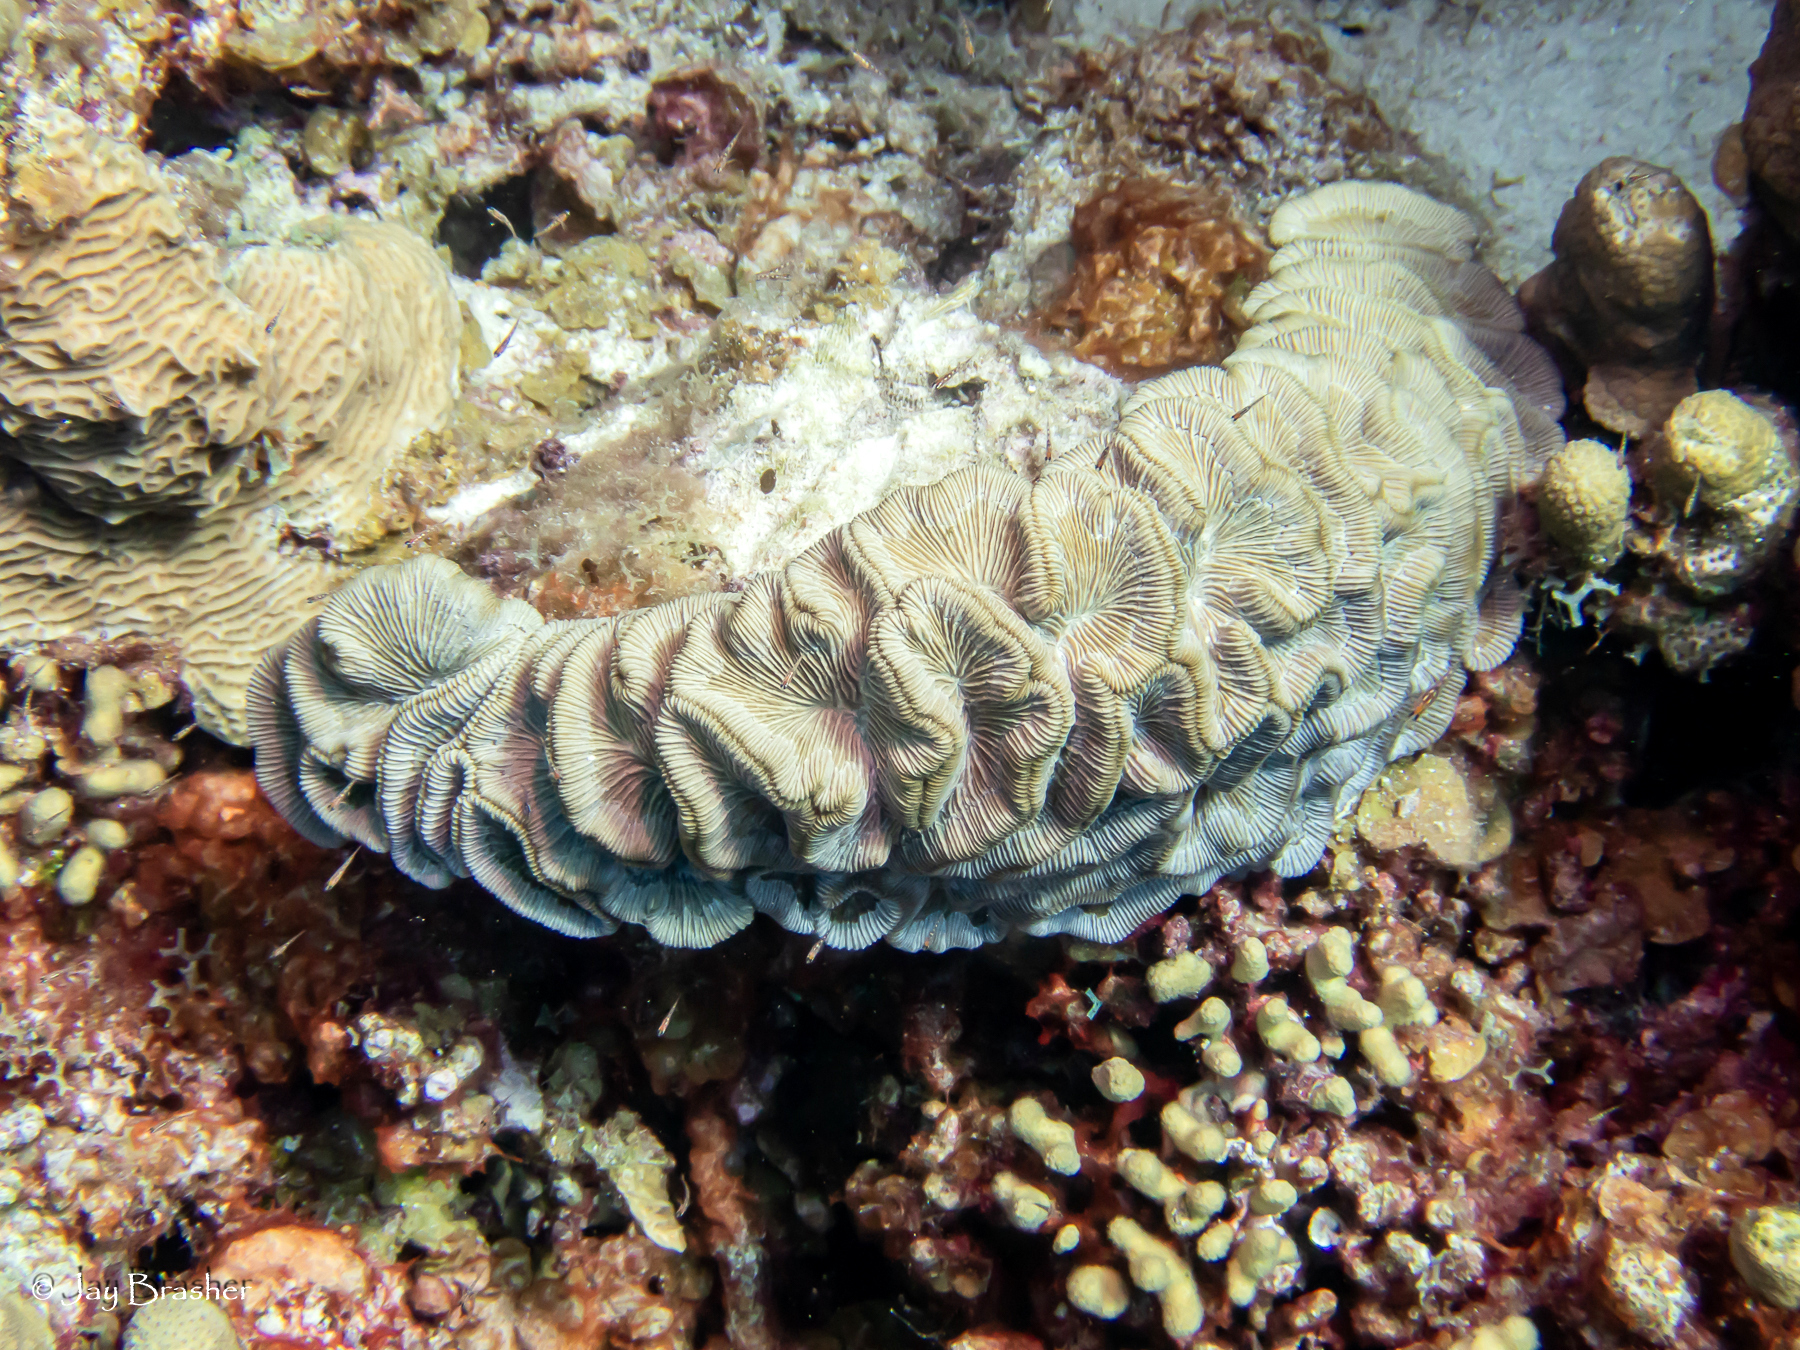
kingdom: Animalia
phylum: Cnidaria
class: Anthozoa
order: Scleractinia
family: Faviidae
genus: Colpophyllia
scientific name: Colpophyllia natans
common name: Boulder brain coral
